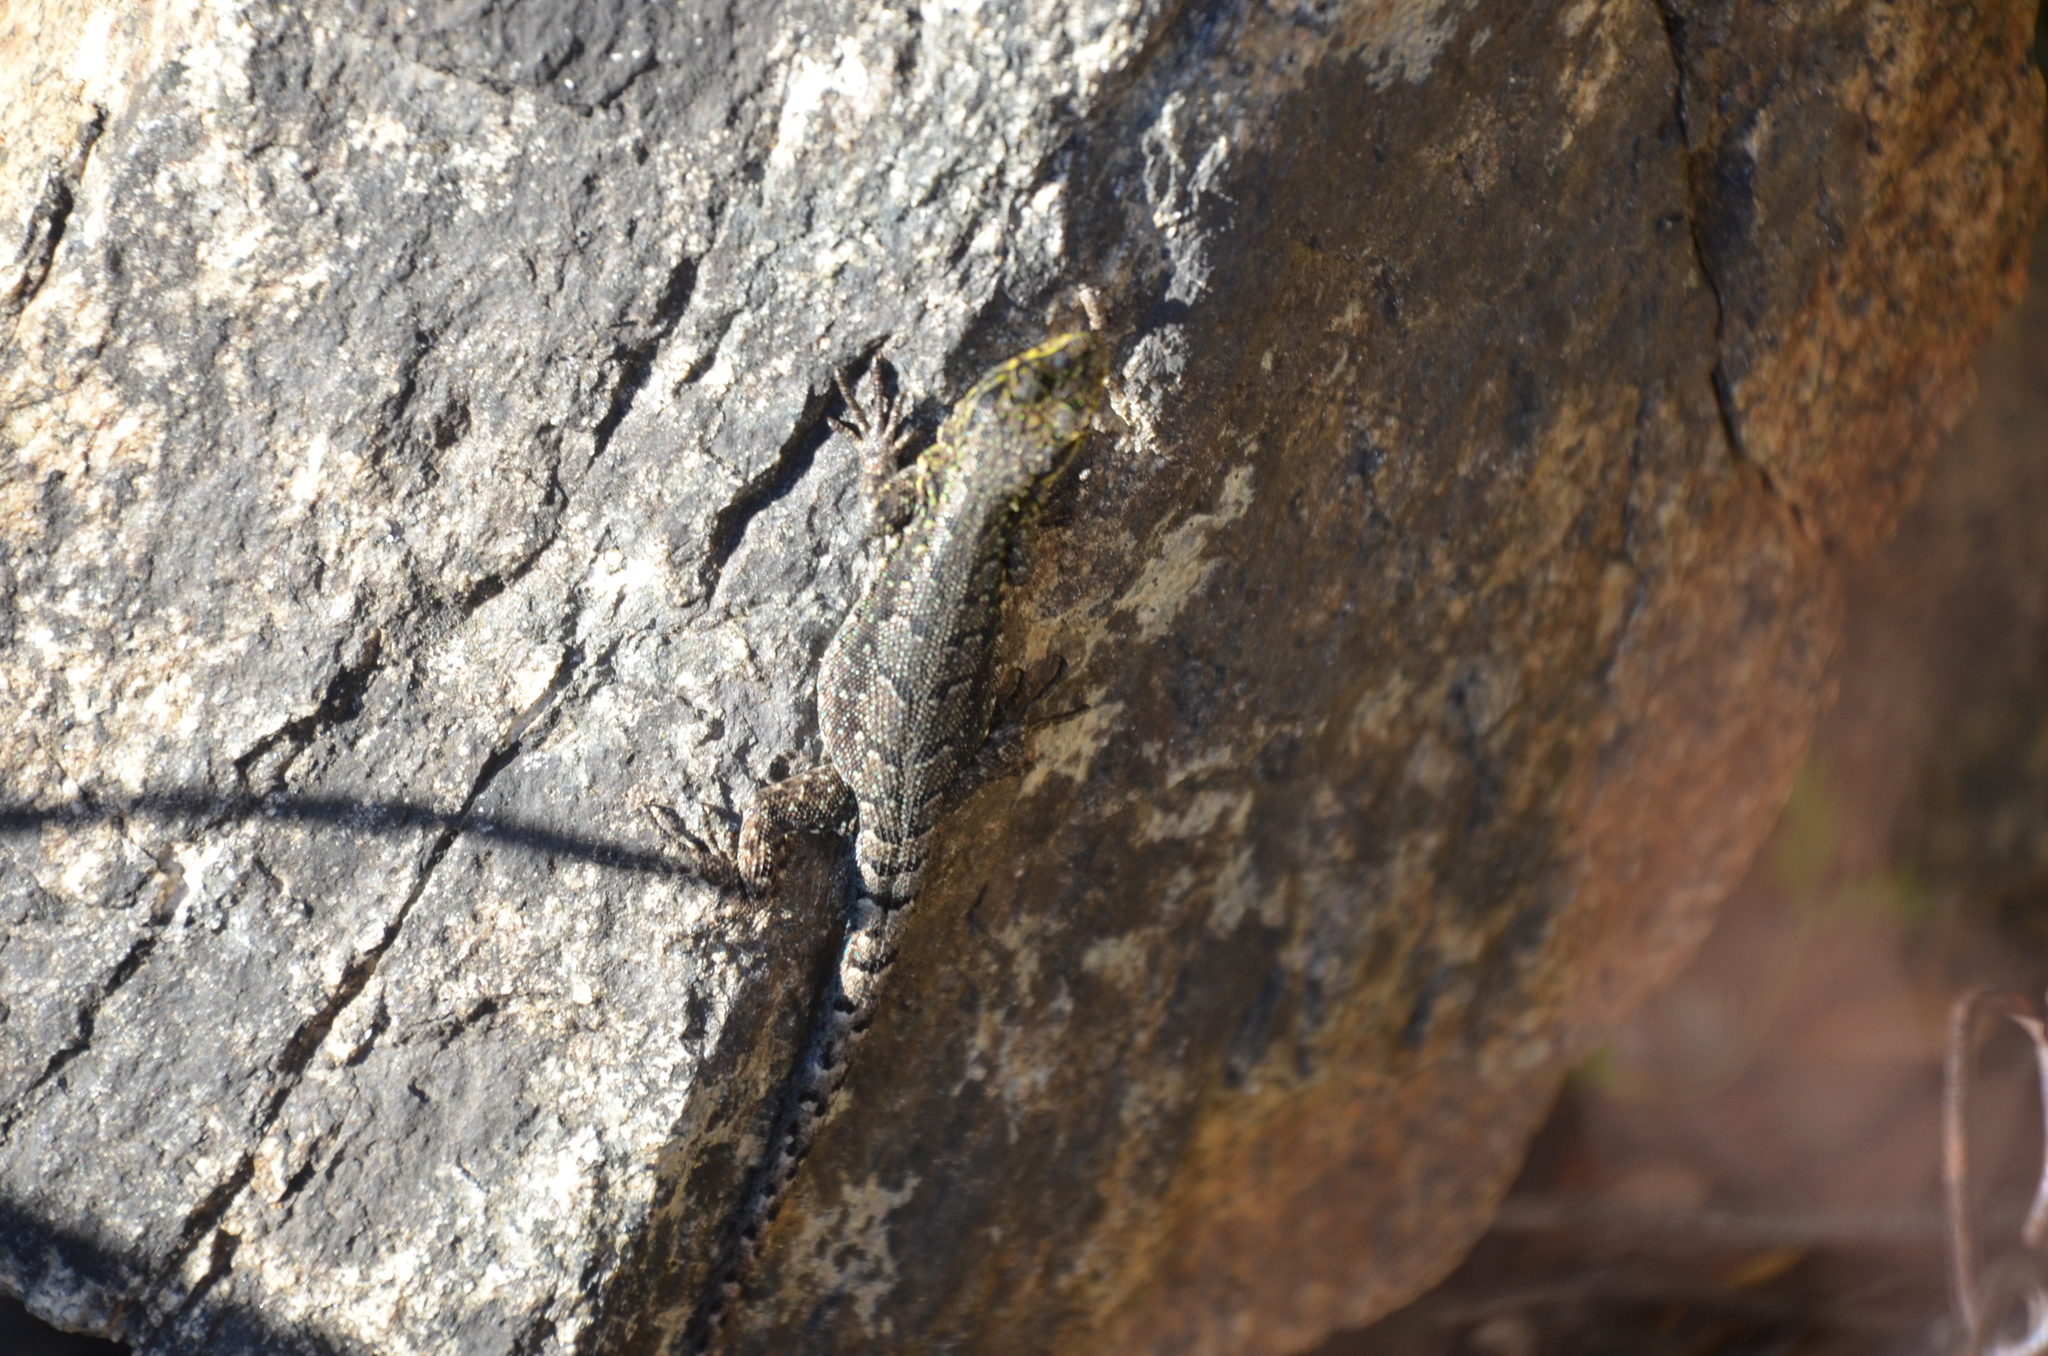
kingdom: Animalia
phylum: Chordata
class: Squamata
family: Liolaemidae
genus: Liolaemus
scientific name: Liolaemus tenuis
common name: Thin tree iguana
